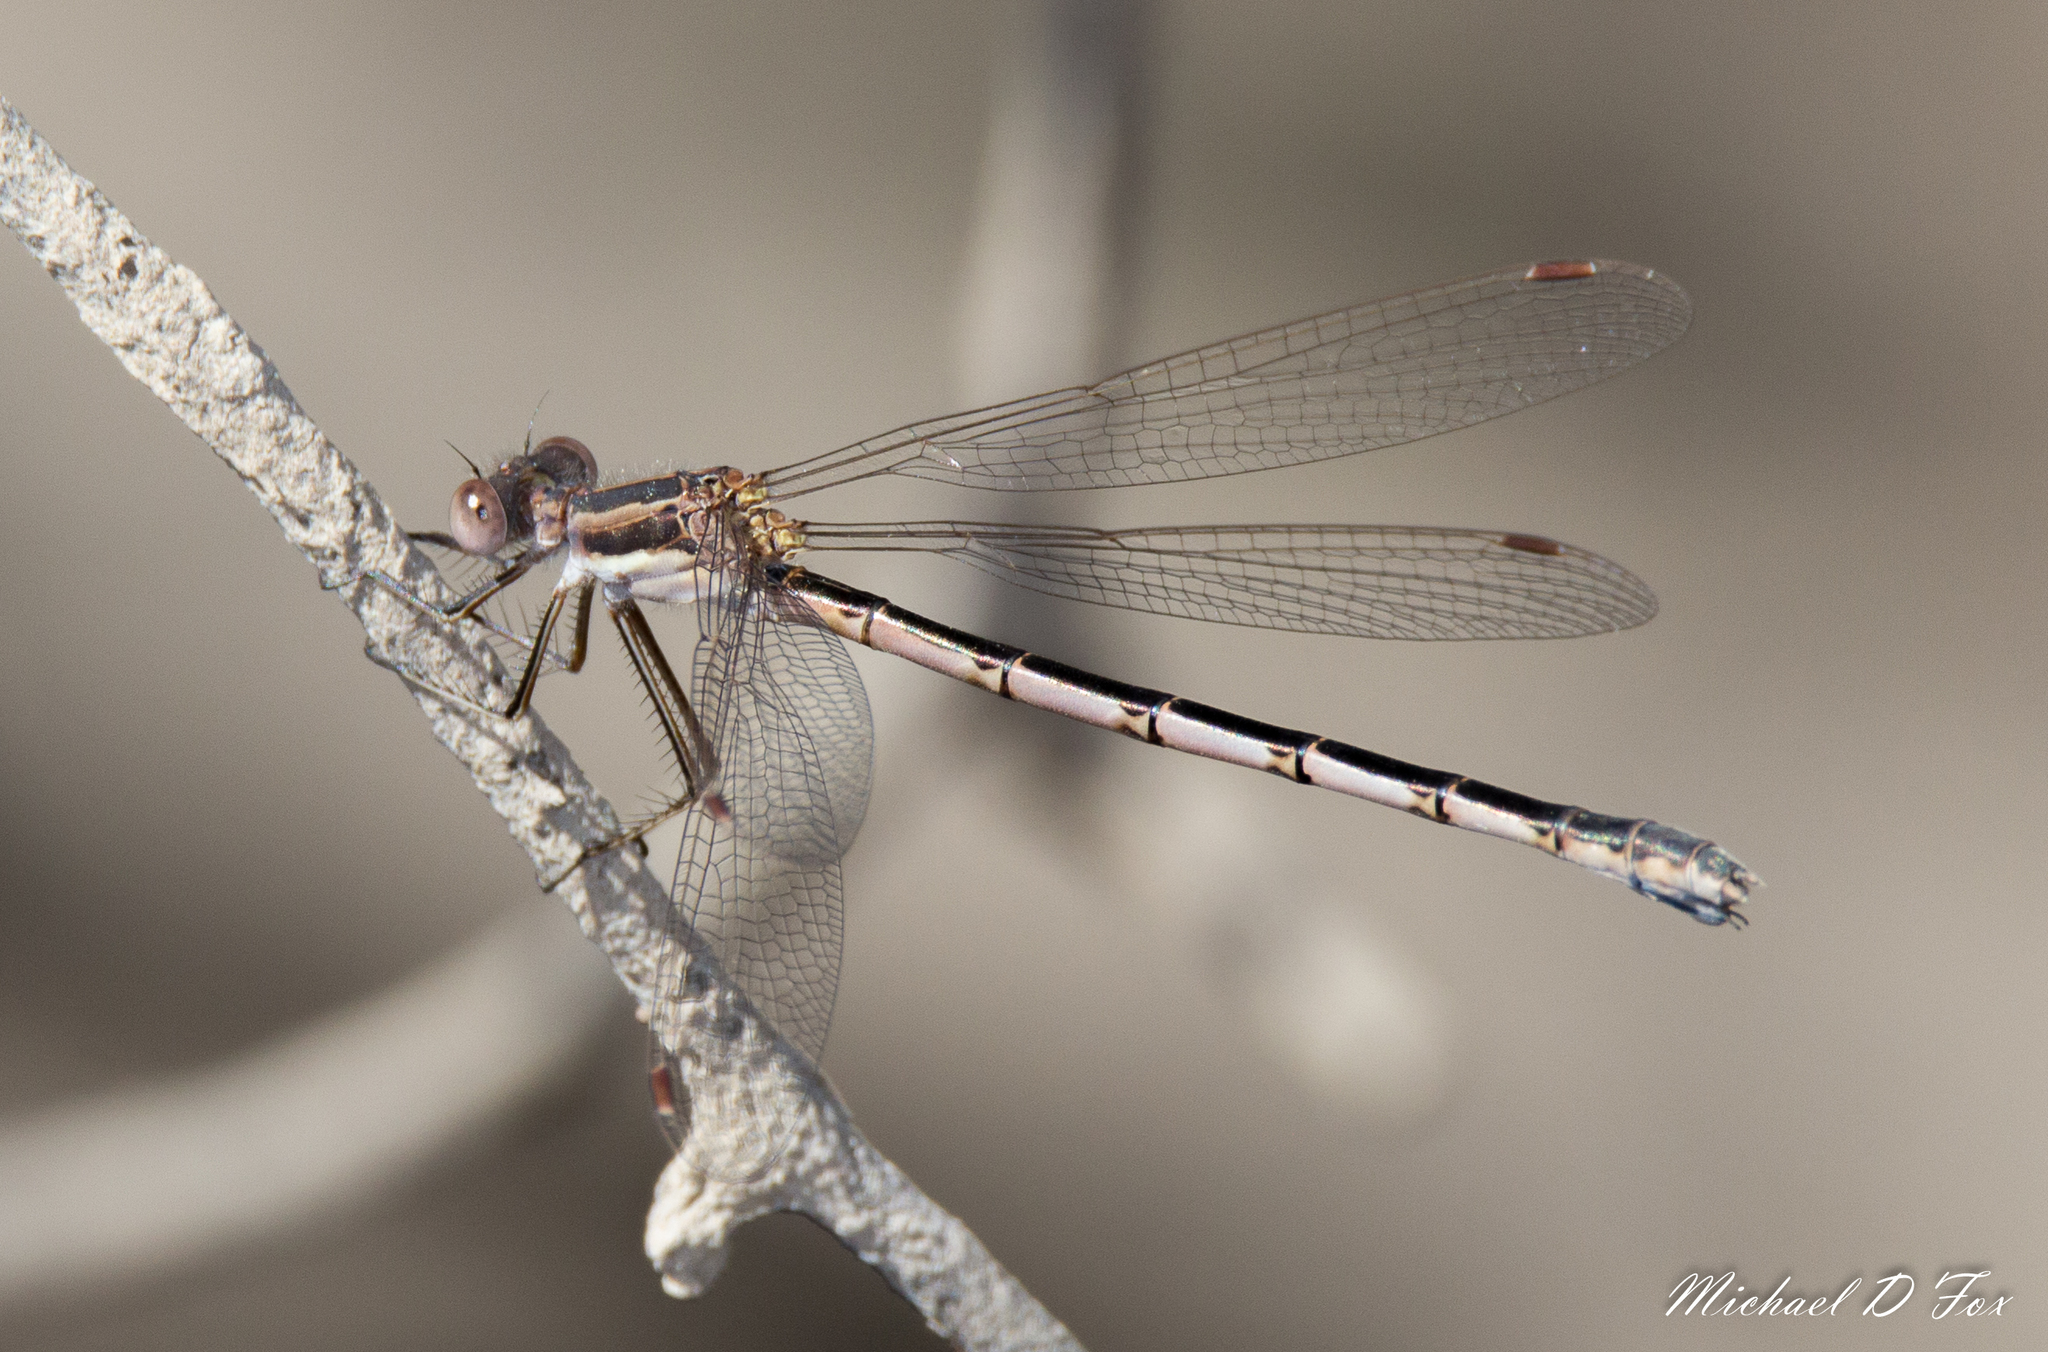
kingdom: Animalia
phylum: Arthropoda
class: Insecta
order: Odonata
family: Lestidae
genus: Lestes
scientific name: Lestes australis
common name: Southern spreadwing
